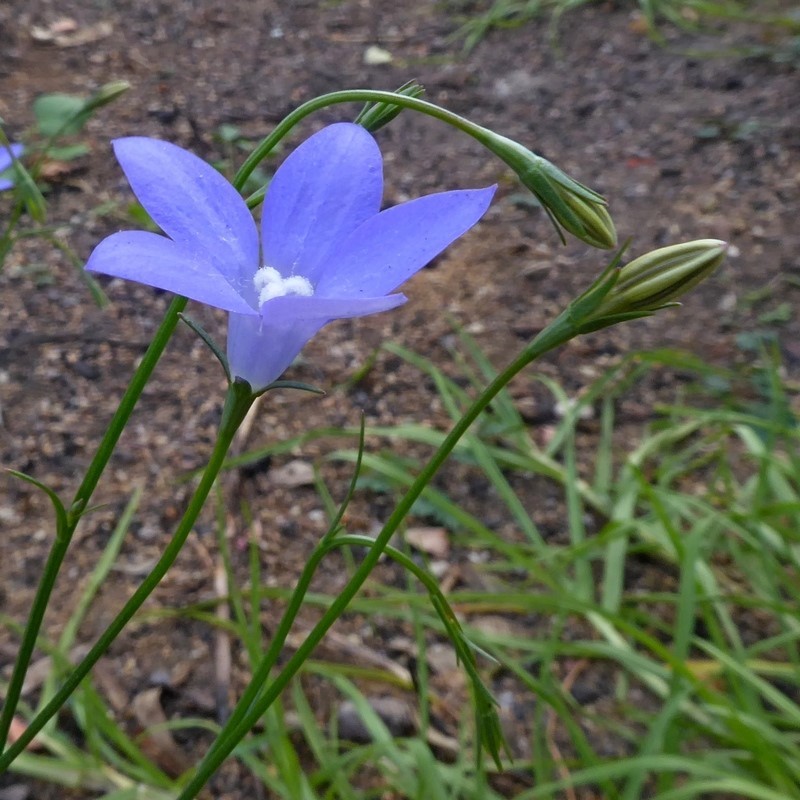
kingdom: Plantae
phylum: Tracheophyta
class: Magnoliopsida
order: Asterales
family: Campanulaceae
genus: Wahlenbergia
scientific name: Wahlenbergia capillaris
